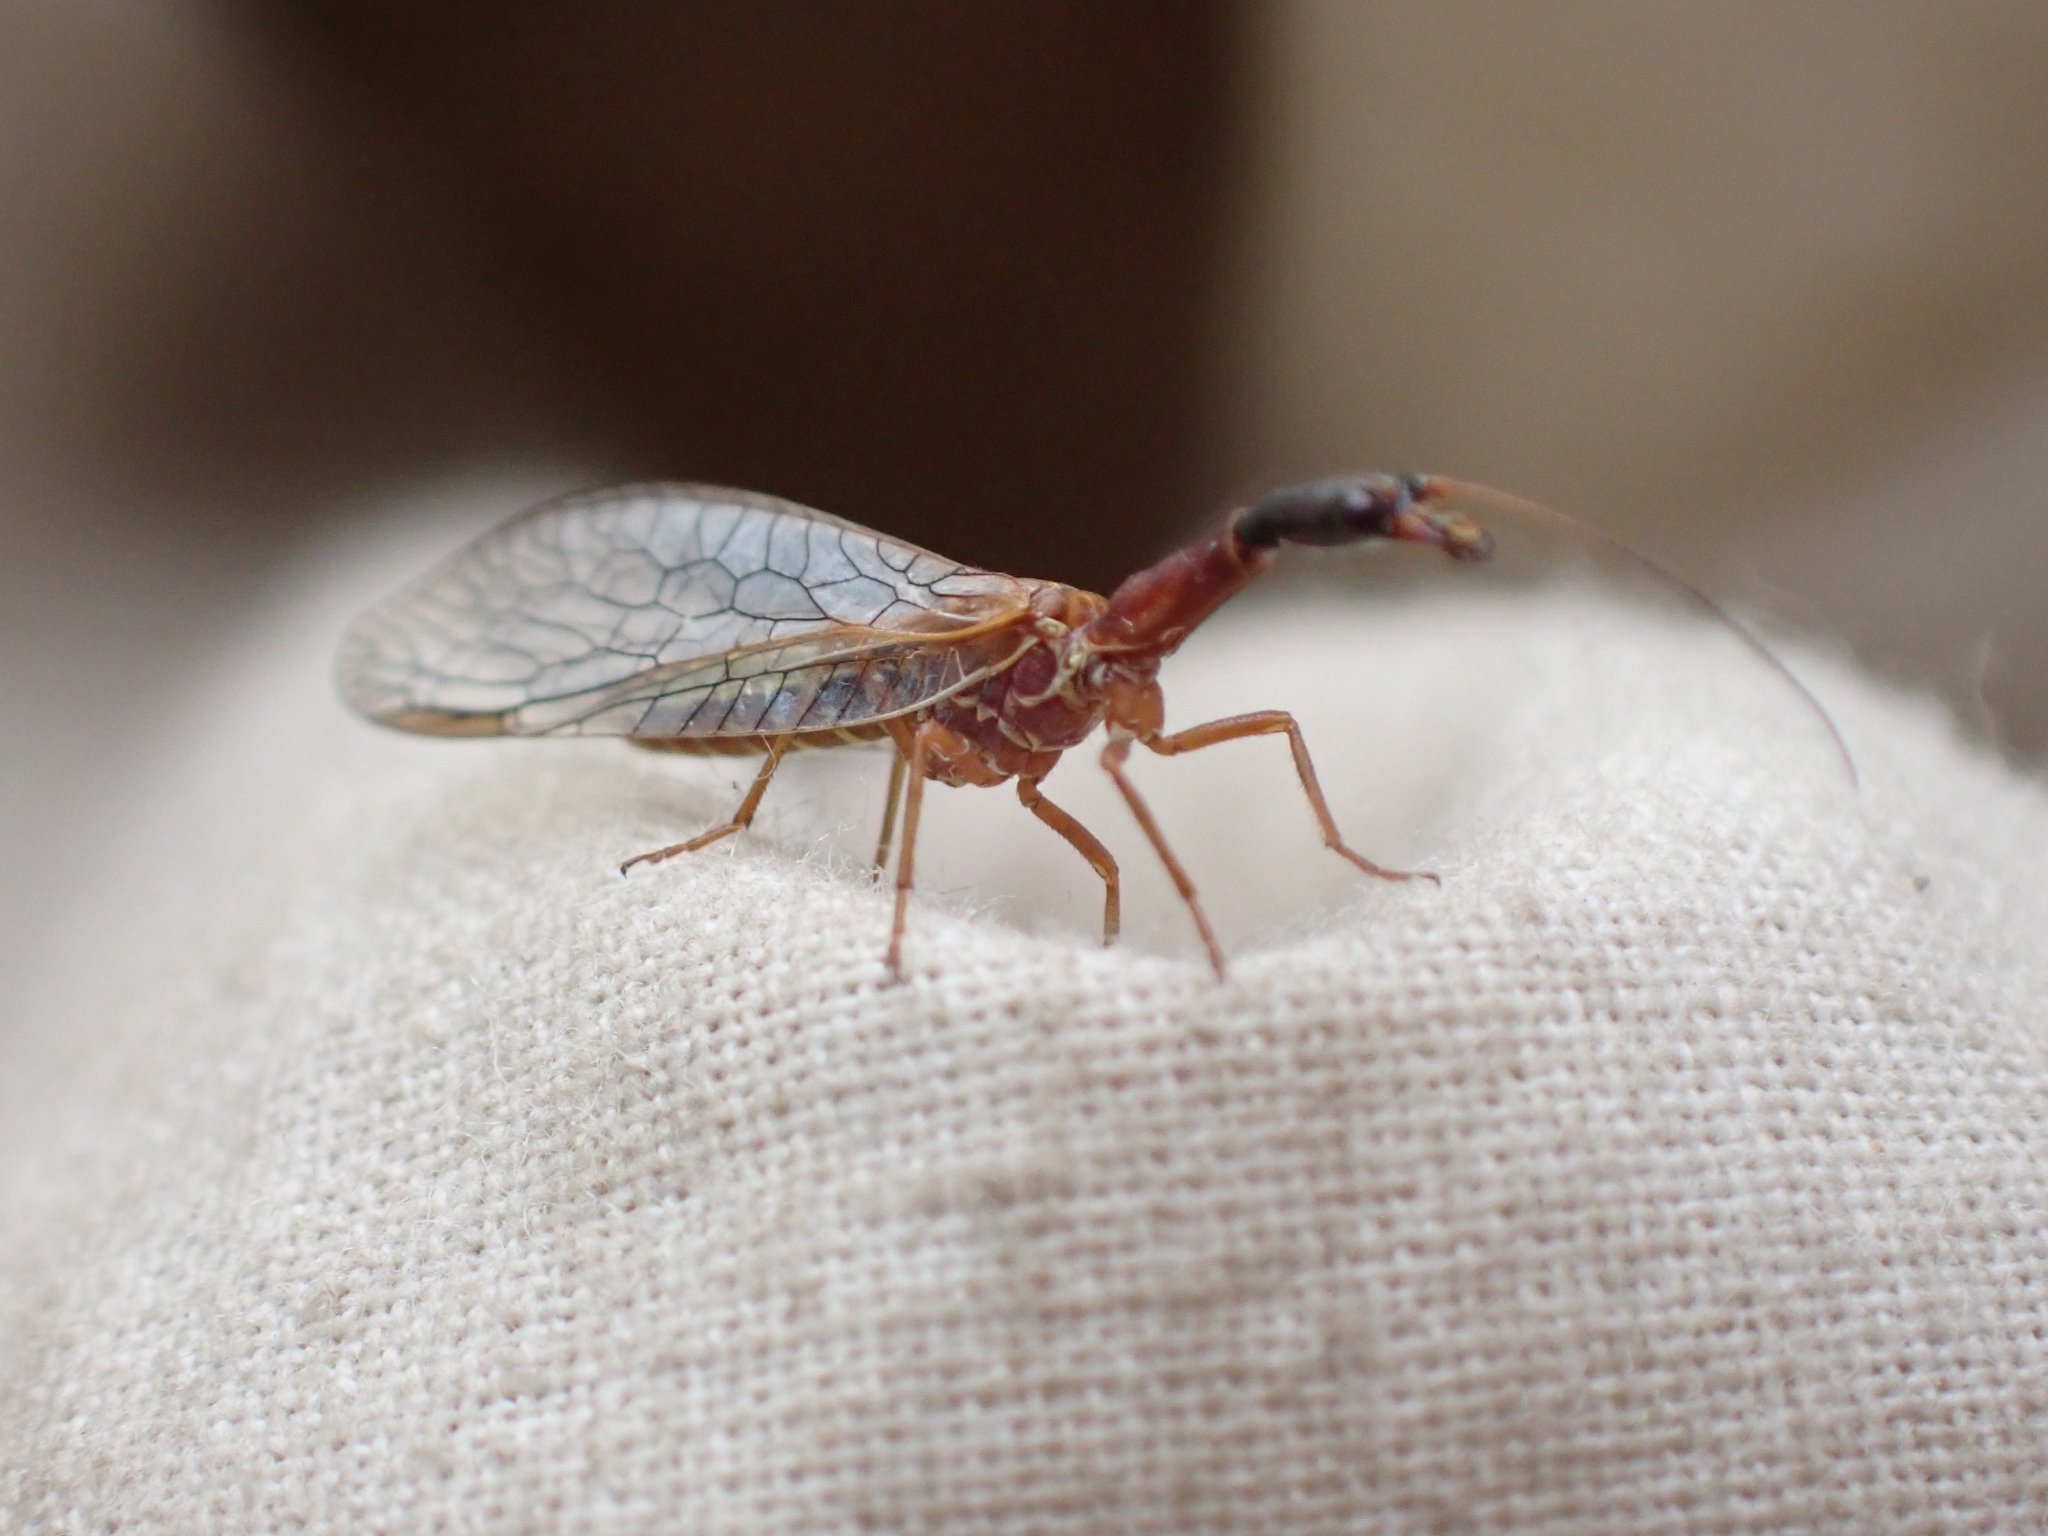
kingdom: Animalia
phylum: Arthropoda
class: Insecta
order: Raphidioptera
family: Raphidiidae
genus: Agulla
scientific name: Agulla unicolor
